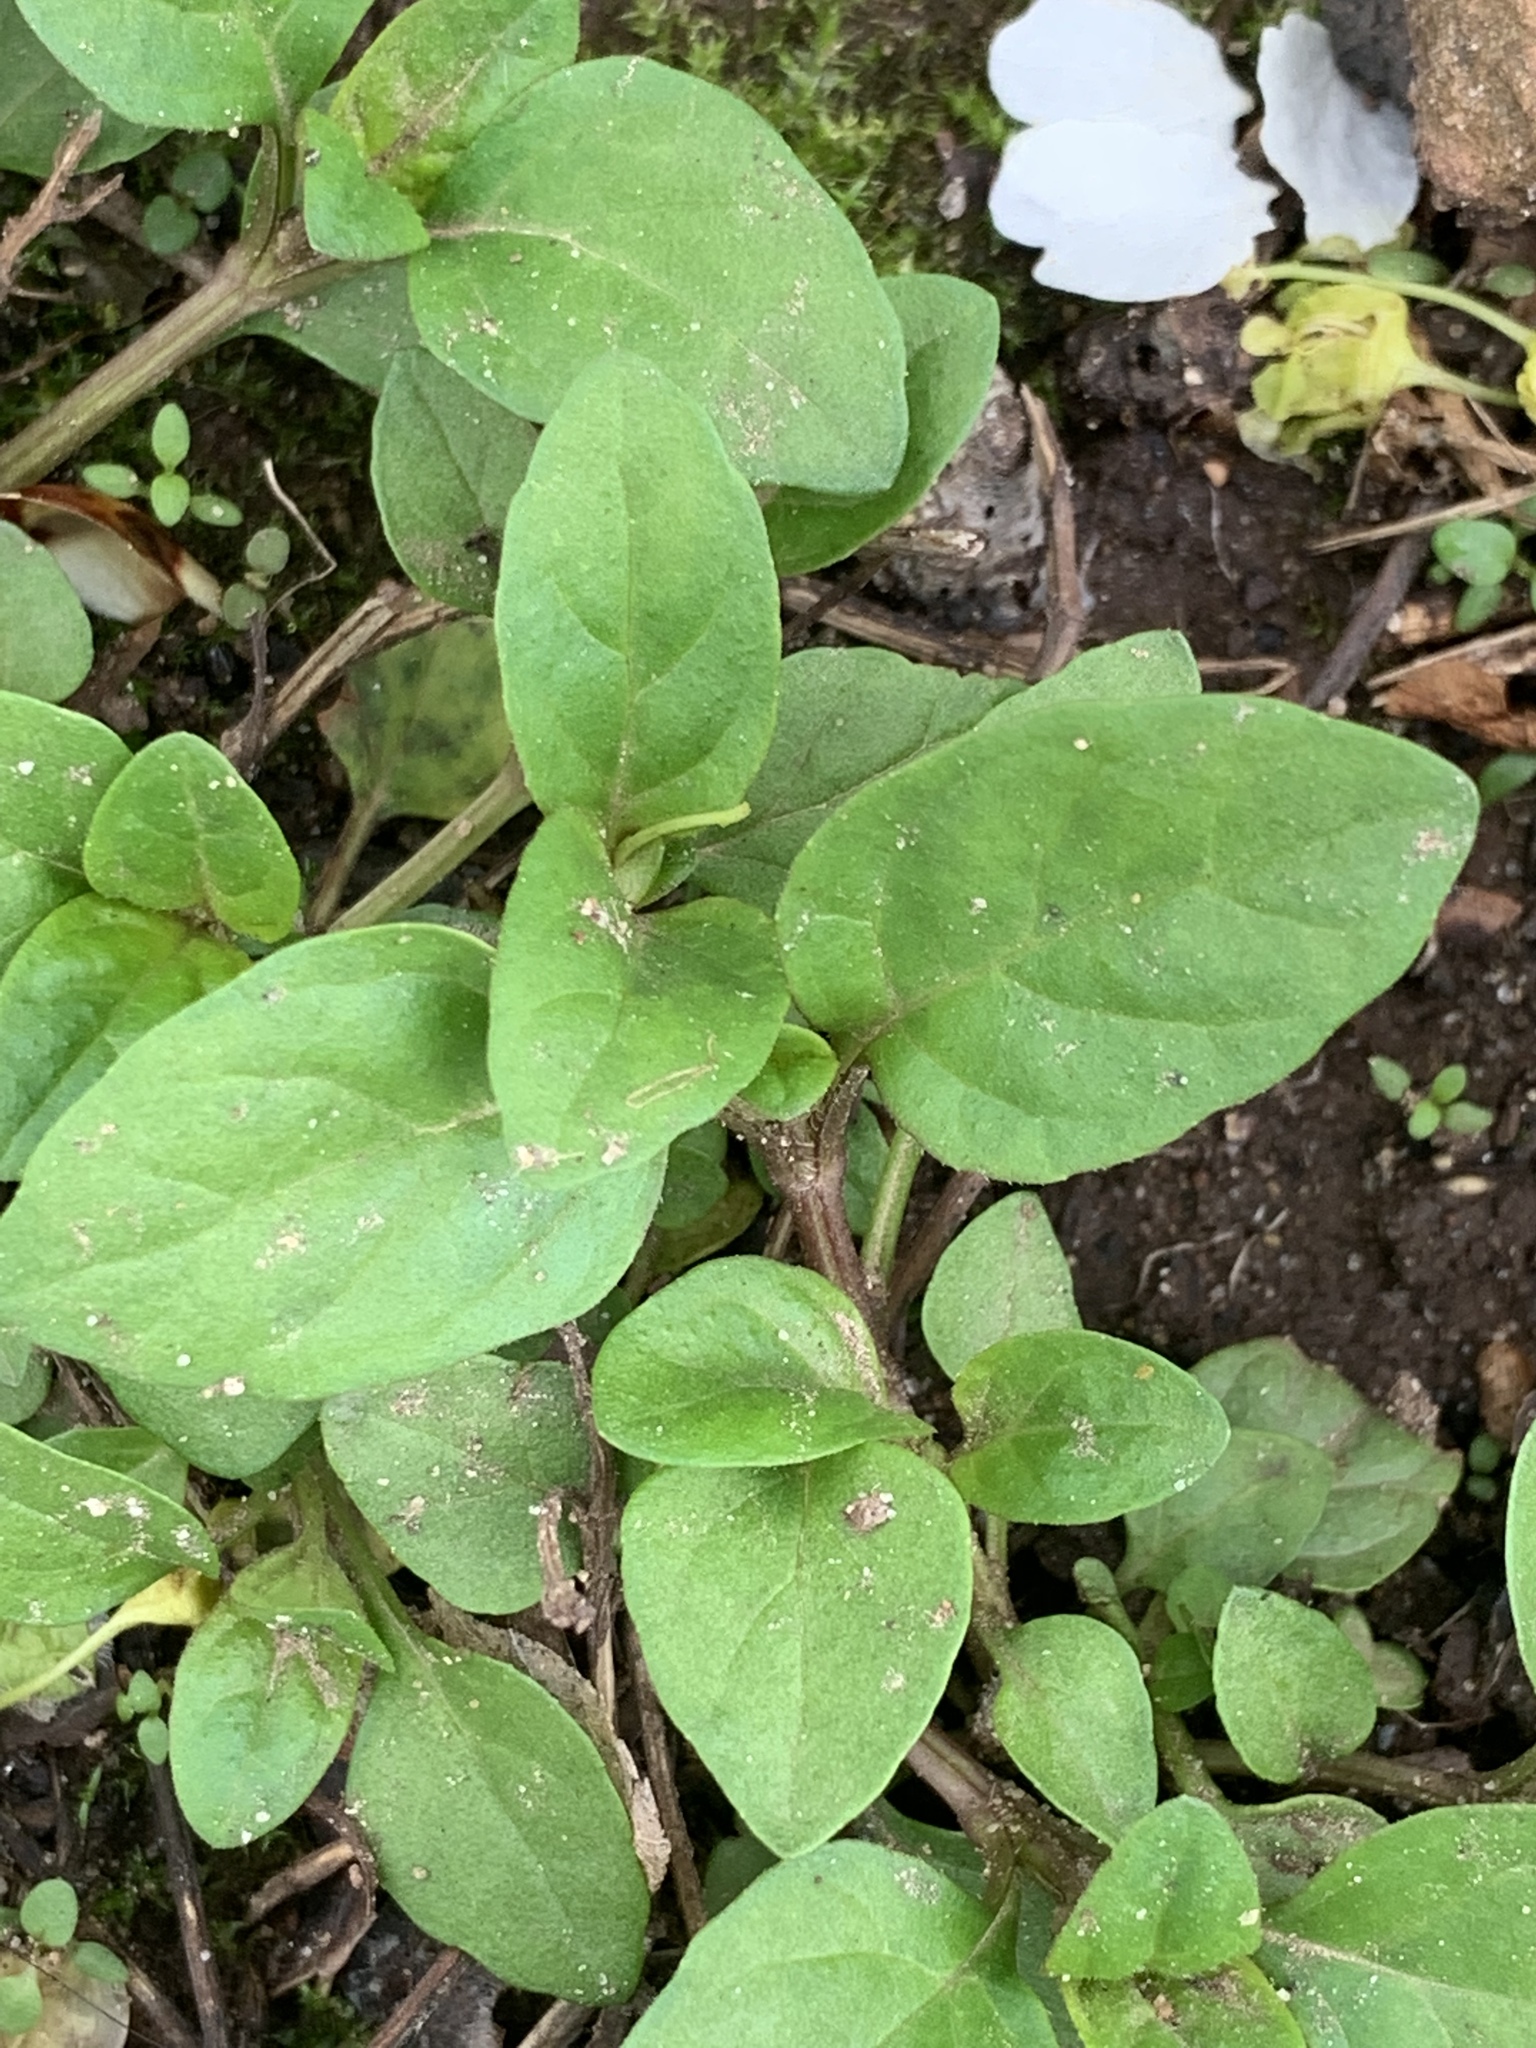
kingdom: Plantae
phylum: Tracheophyta
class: Magnoliopsida
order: Lamiales
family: Lamiaceae
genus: Prunella
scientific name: Prunella vulgaris
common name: Heal-all
